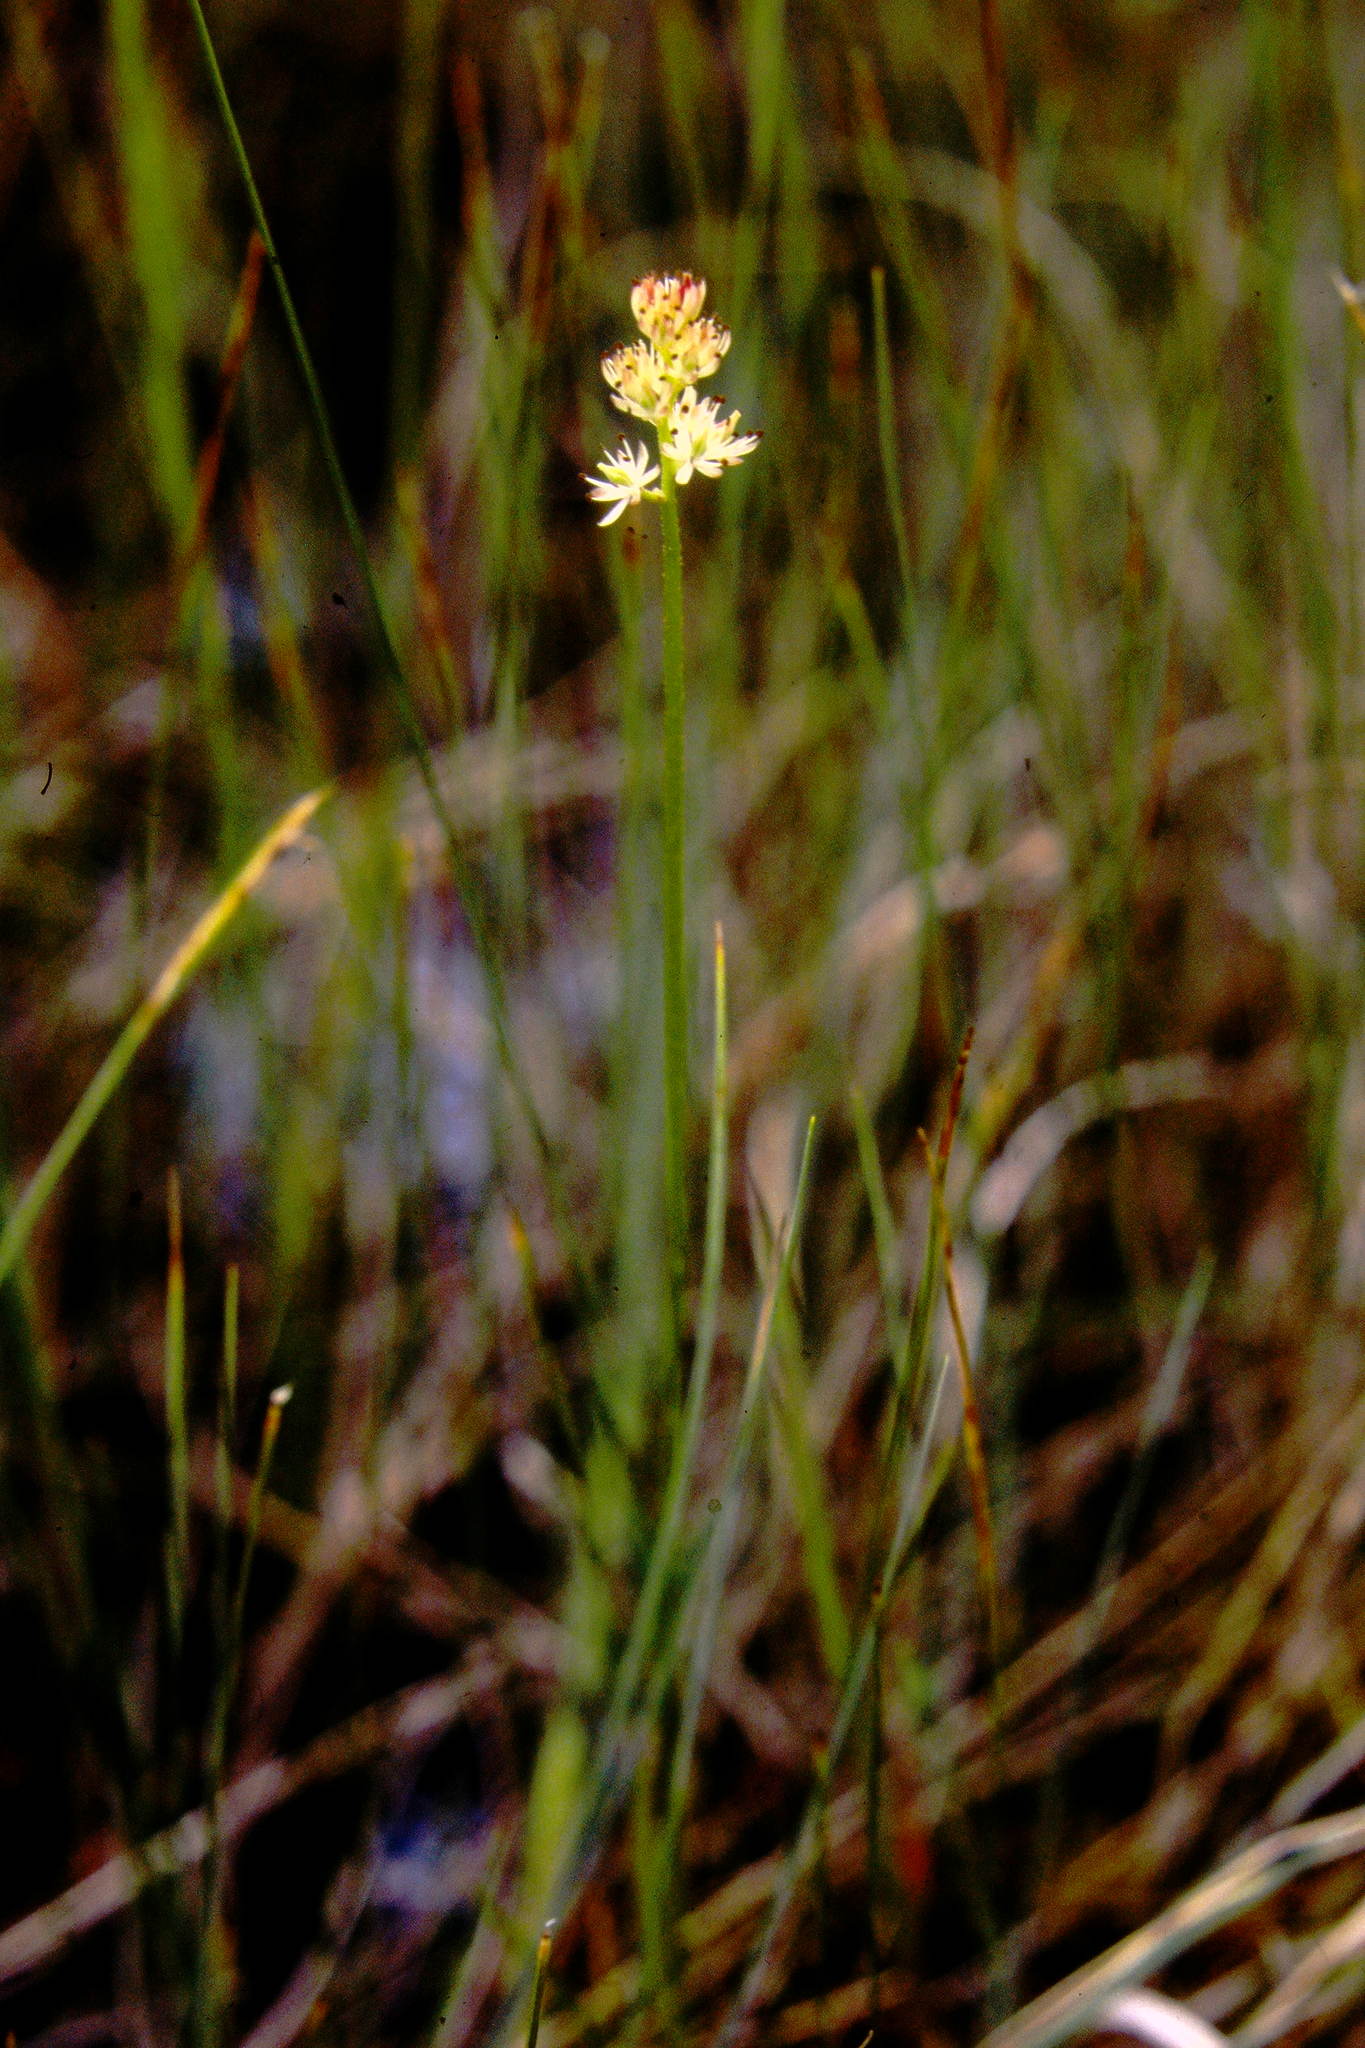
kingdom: Plantae
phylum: Tracheophyta
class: Liliopsida
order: Alismatales
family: Tofieldiaceae
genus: Triantha
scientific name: Triantha glutinosa
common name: Glutinous tofieldia
